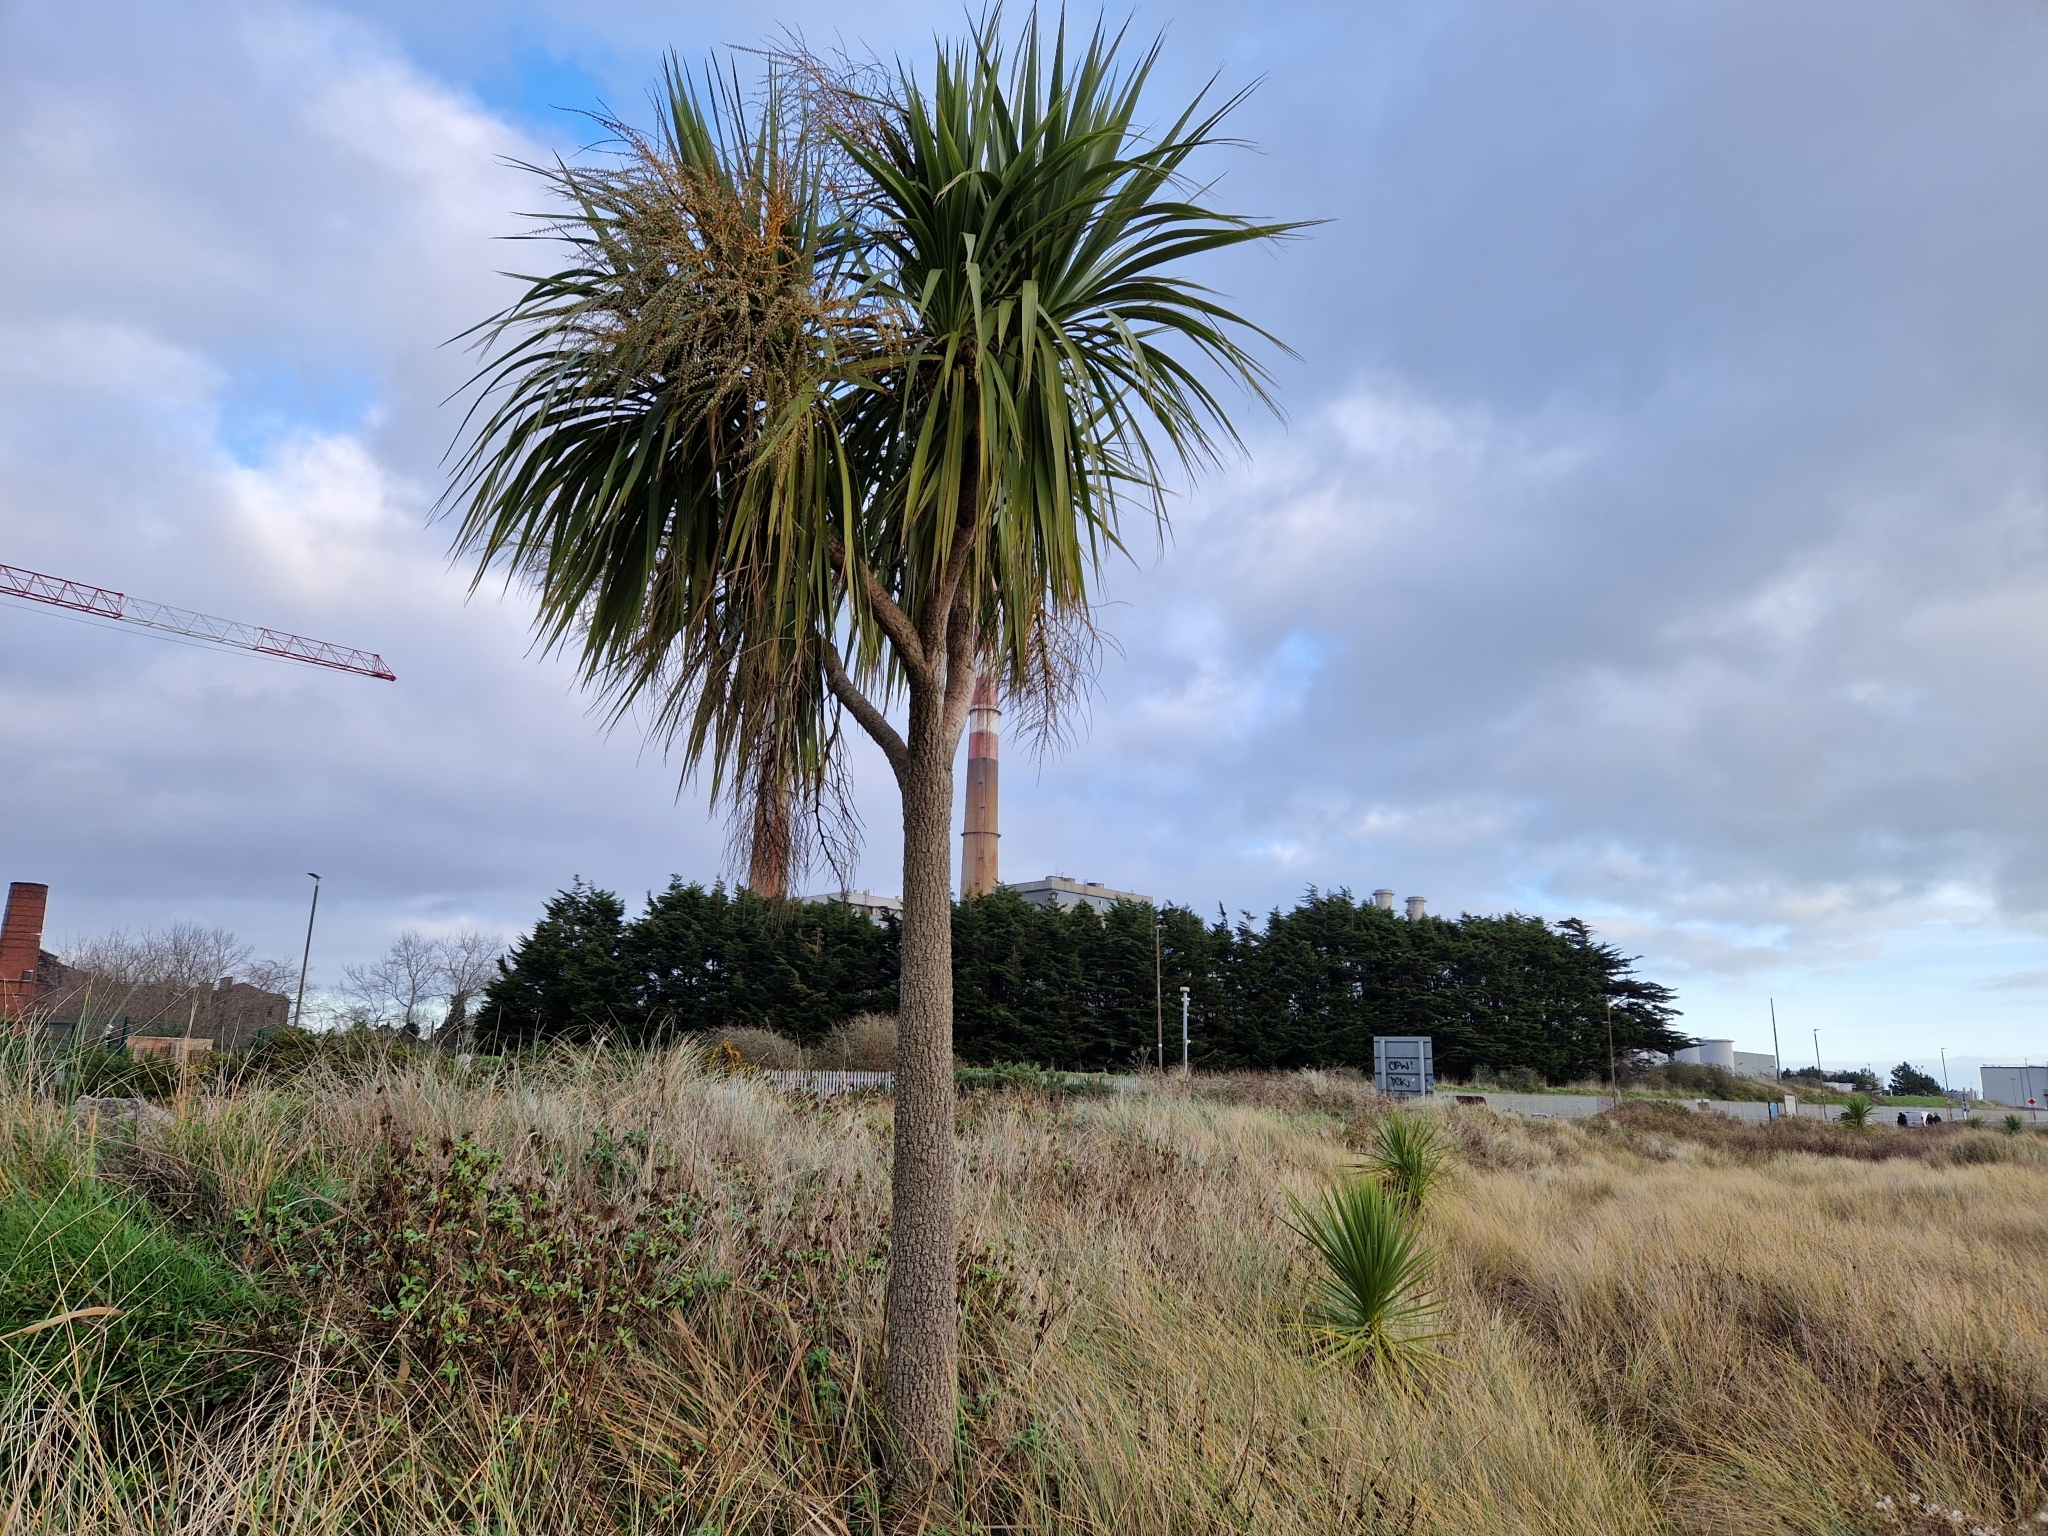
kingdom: Plantae
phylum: Tracheophyta
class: Liliopsida
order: Asparagales
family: Asparagaceae
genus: Cordyline
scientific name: Cordyline australis
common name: Cabbage-palm
